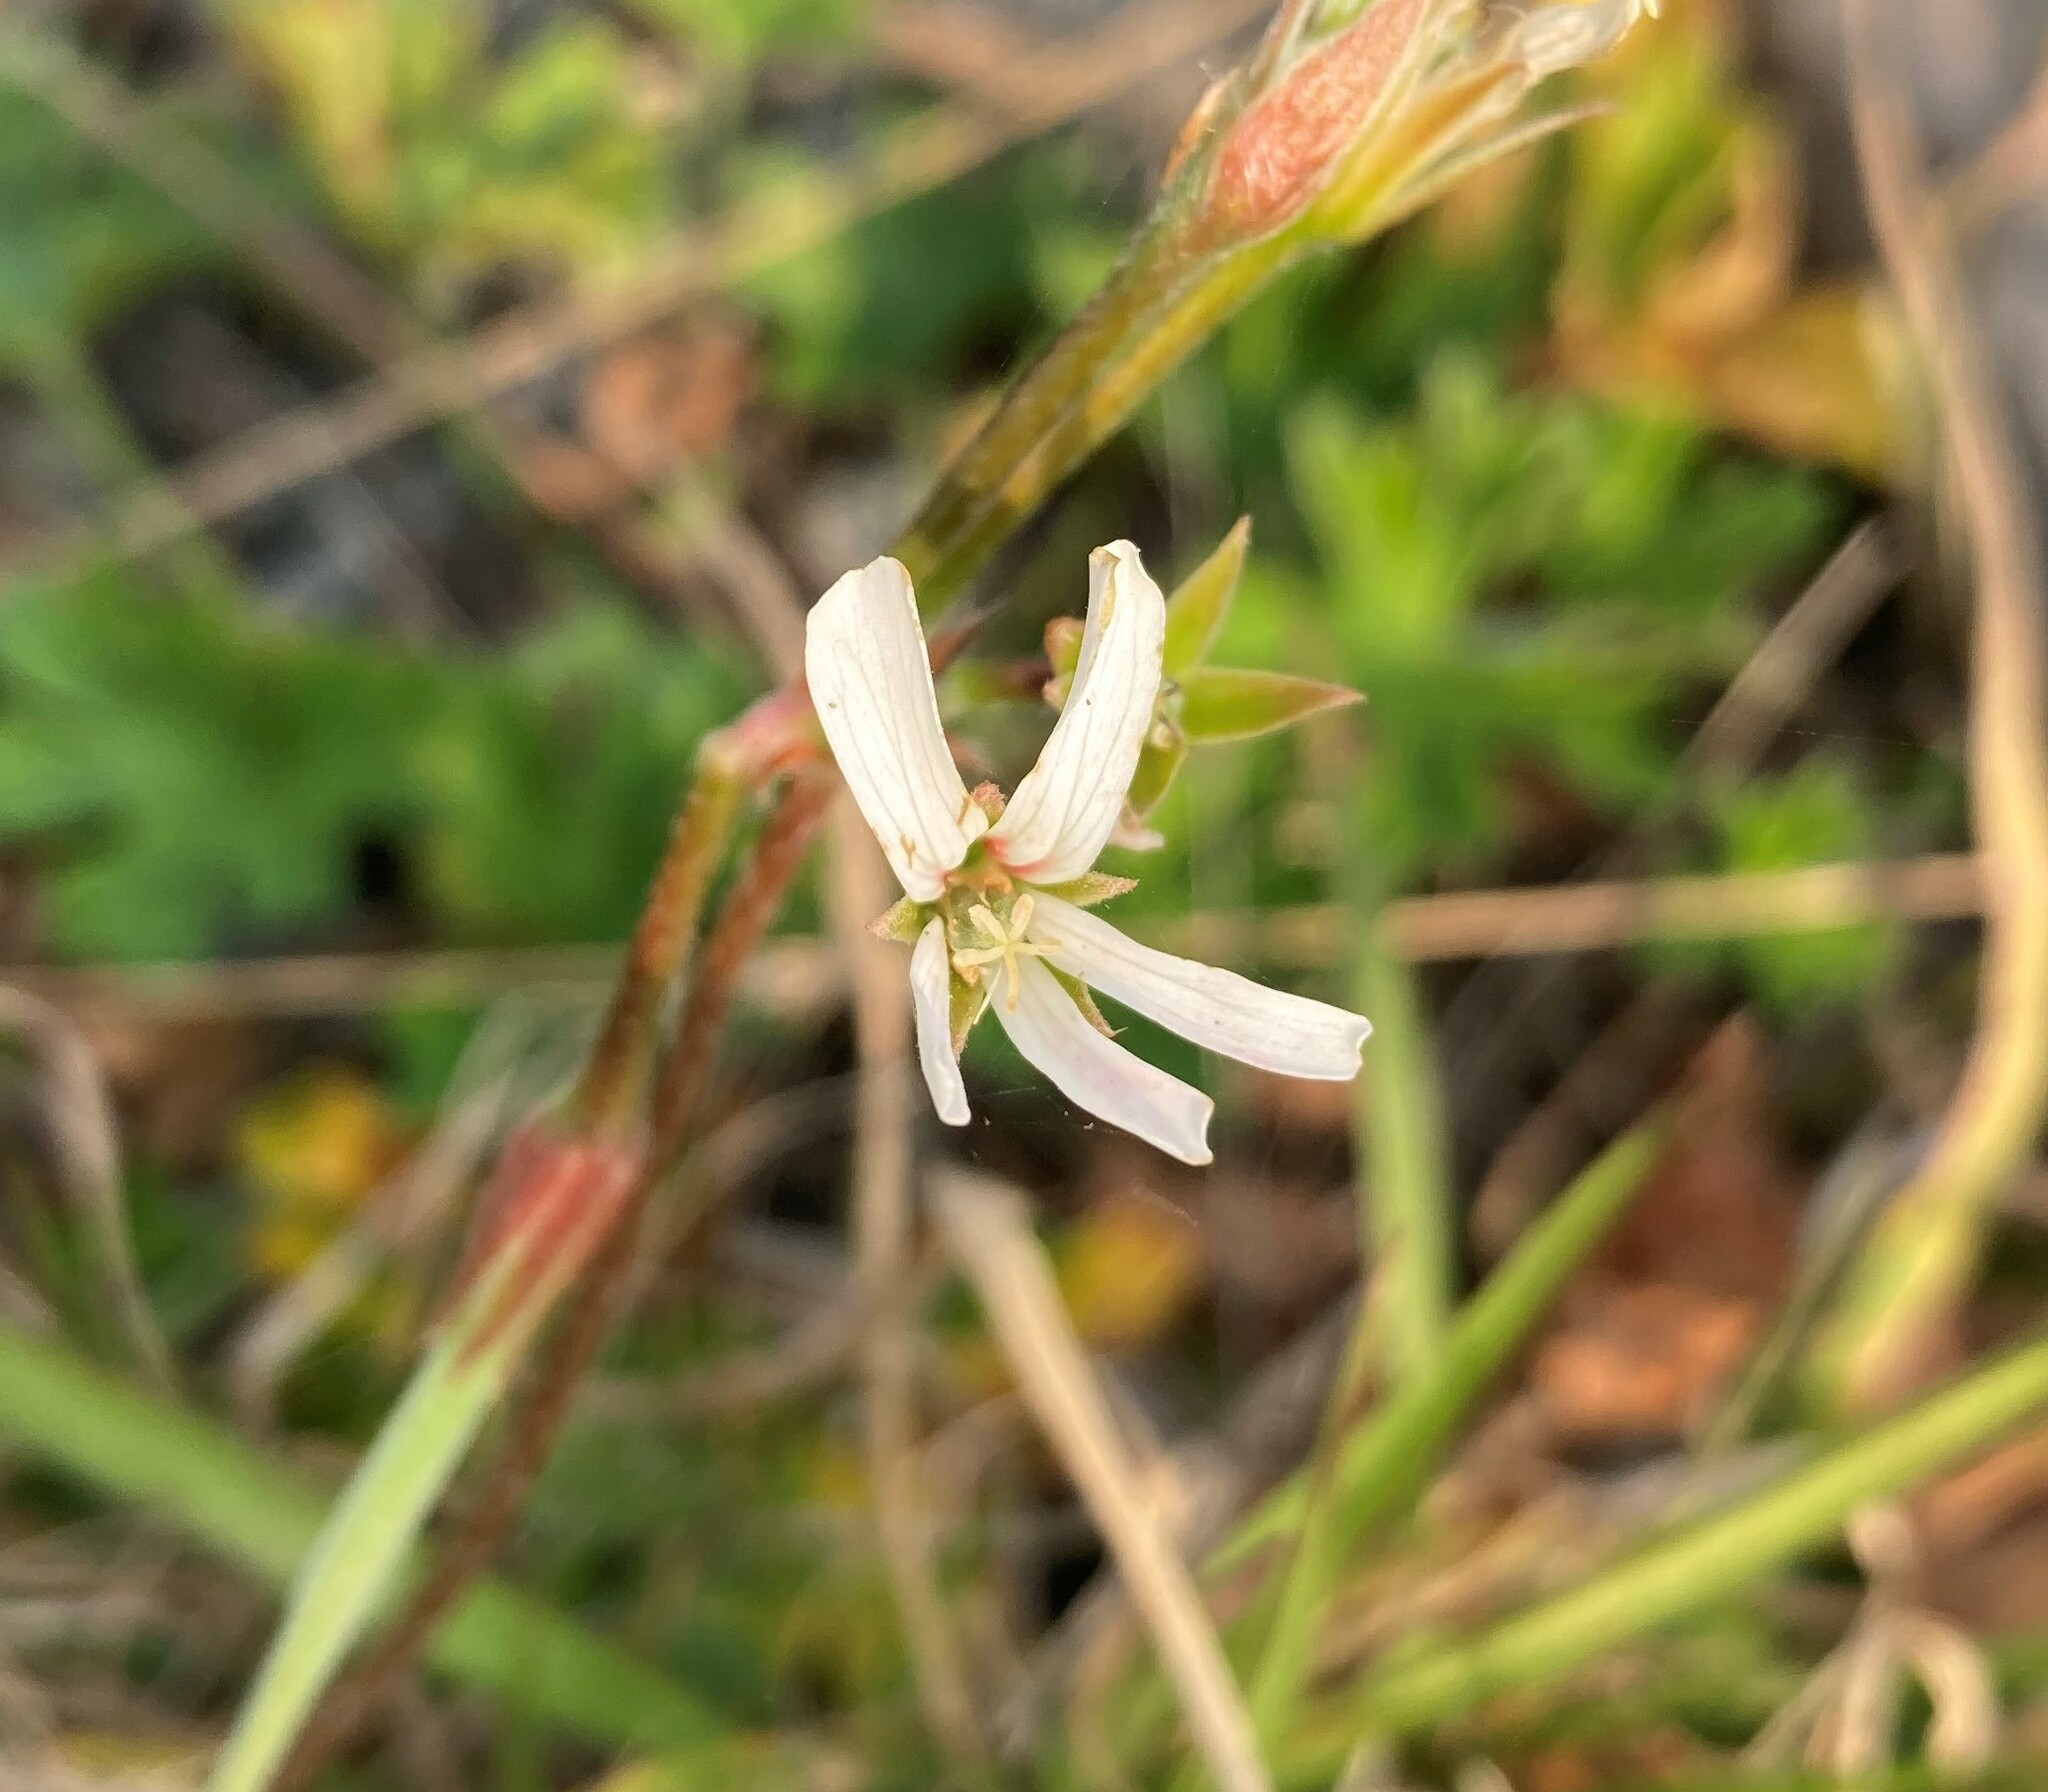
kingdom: Plantae
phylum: Tracheophyta
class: Magnoliopsida
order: Geraniales
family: Geraniaceae
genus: Pelargonium
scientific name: Pelargonium alchemilloides
